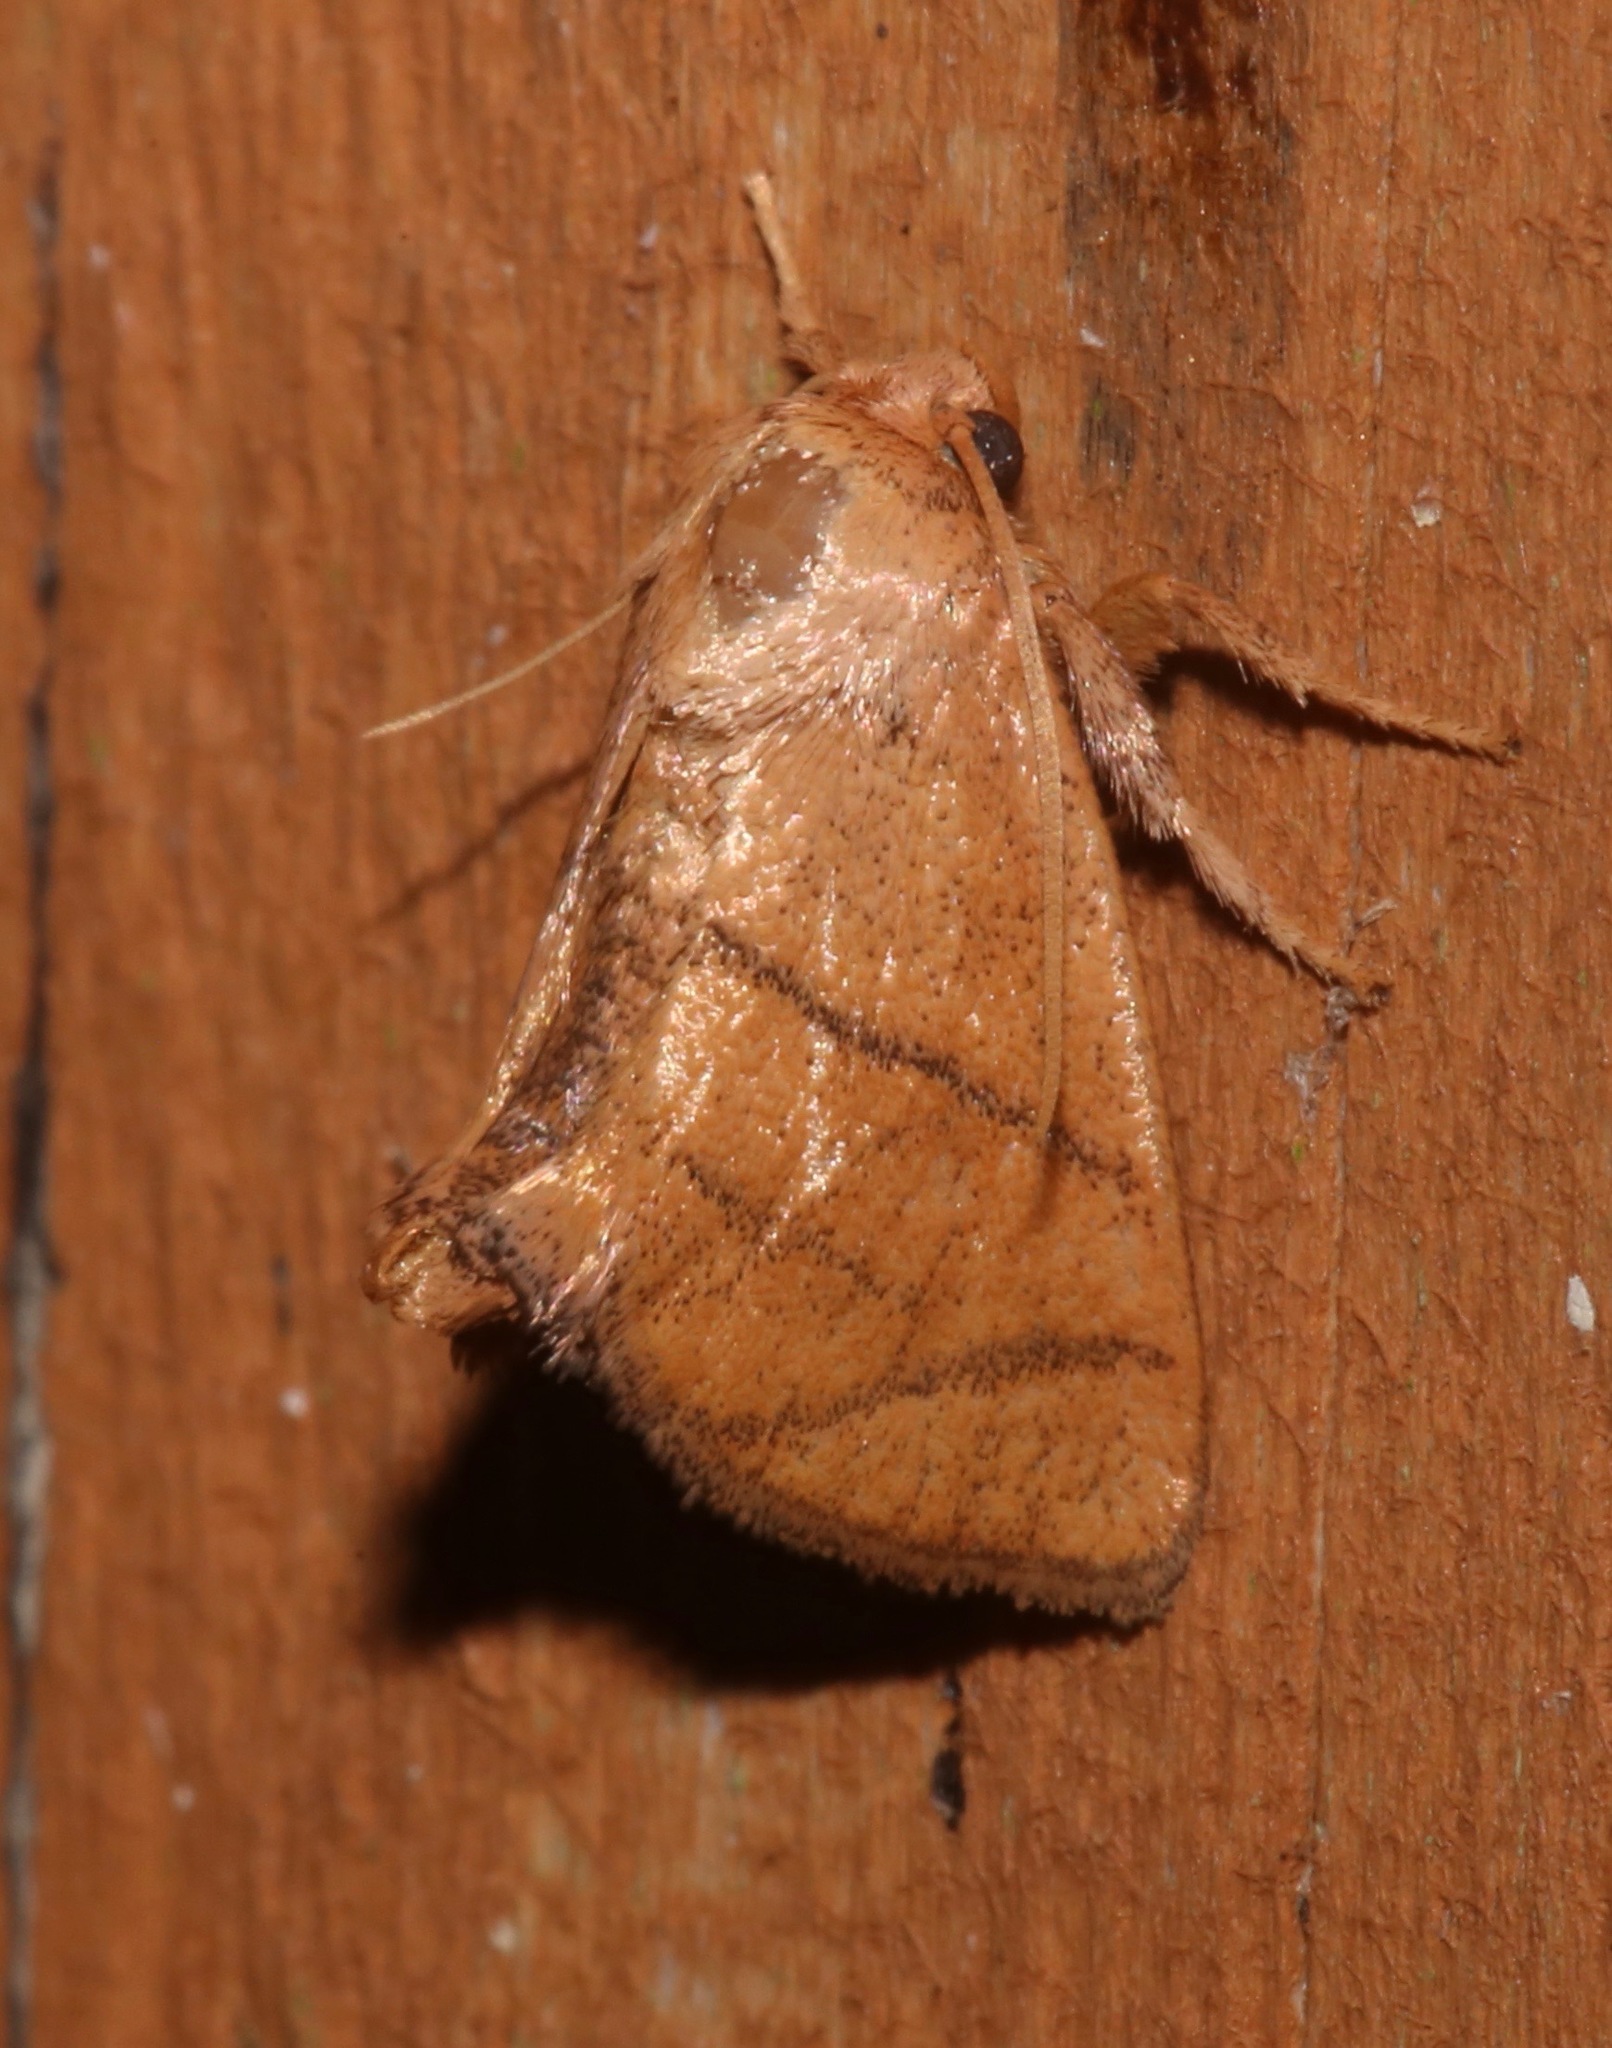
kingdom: Animalia
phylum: Arthropoda
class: Insecta
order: Lepidoptera
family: Limacodidae
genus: Apoda
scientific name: Apoda y-inversa
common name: Yellow-collared slug moth
